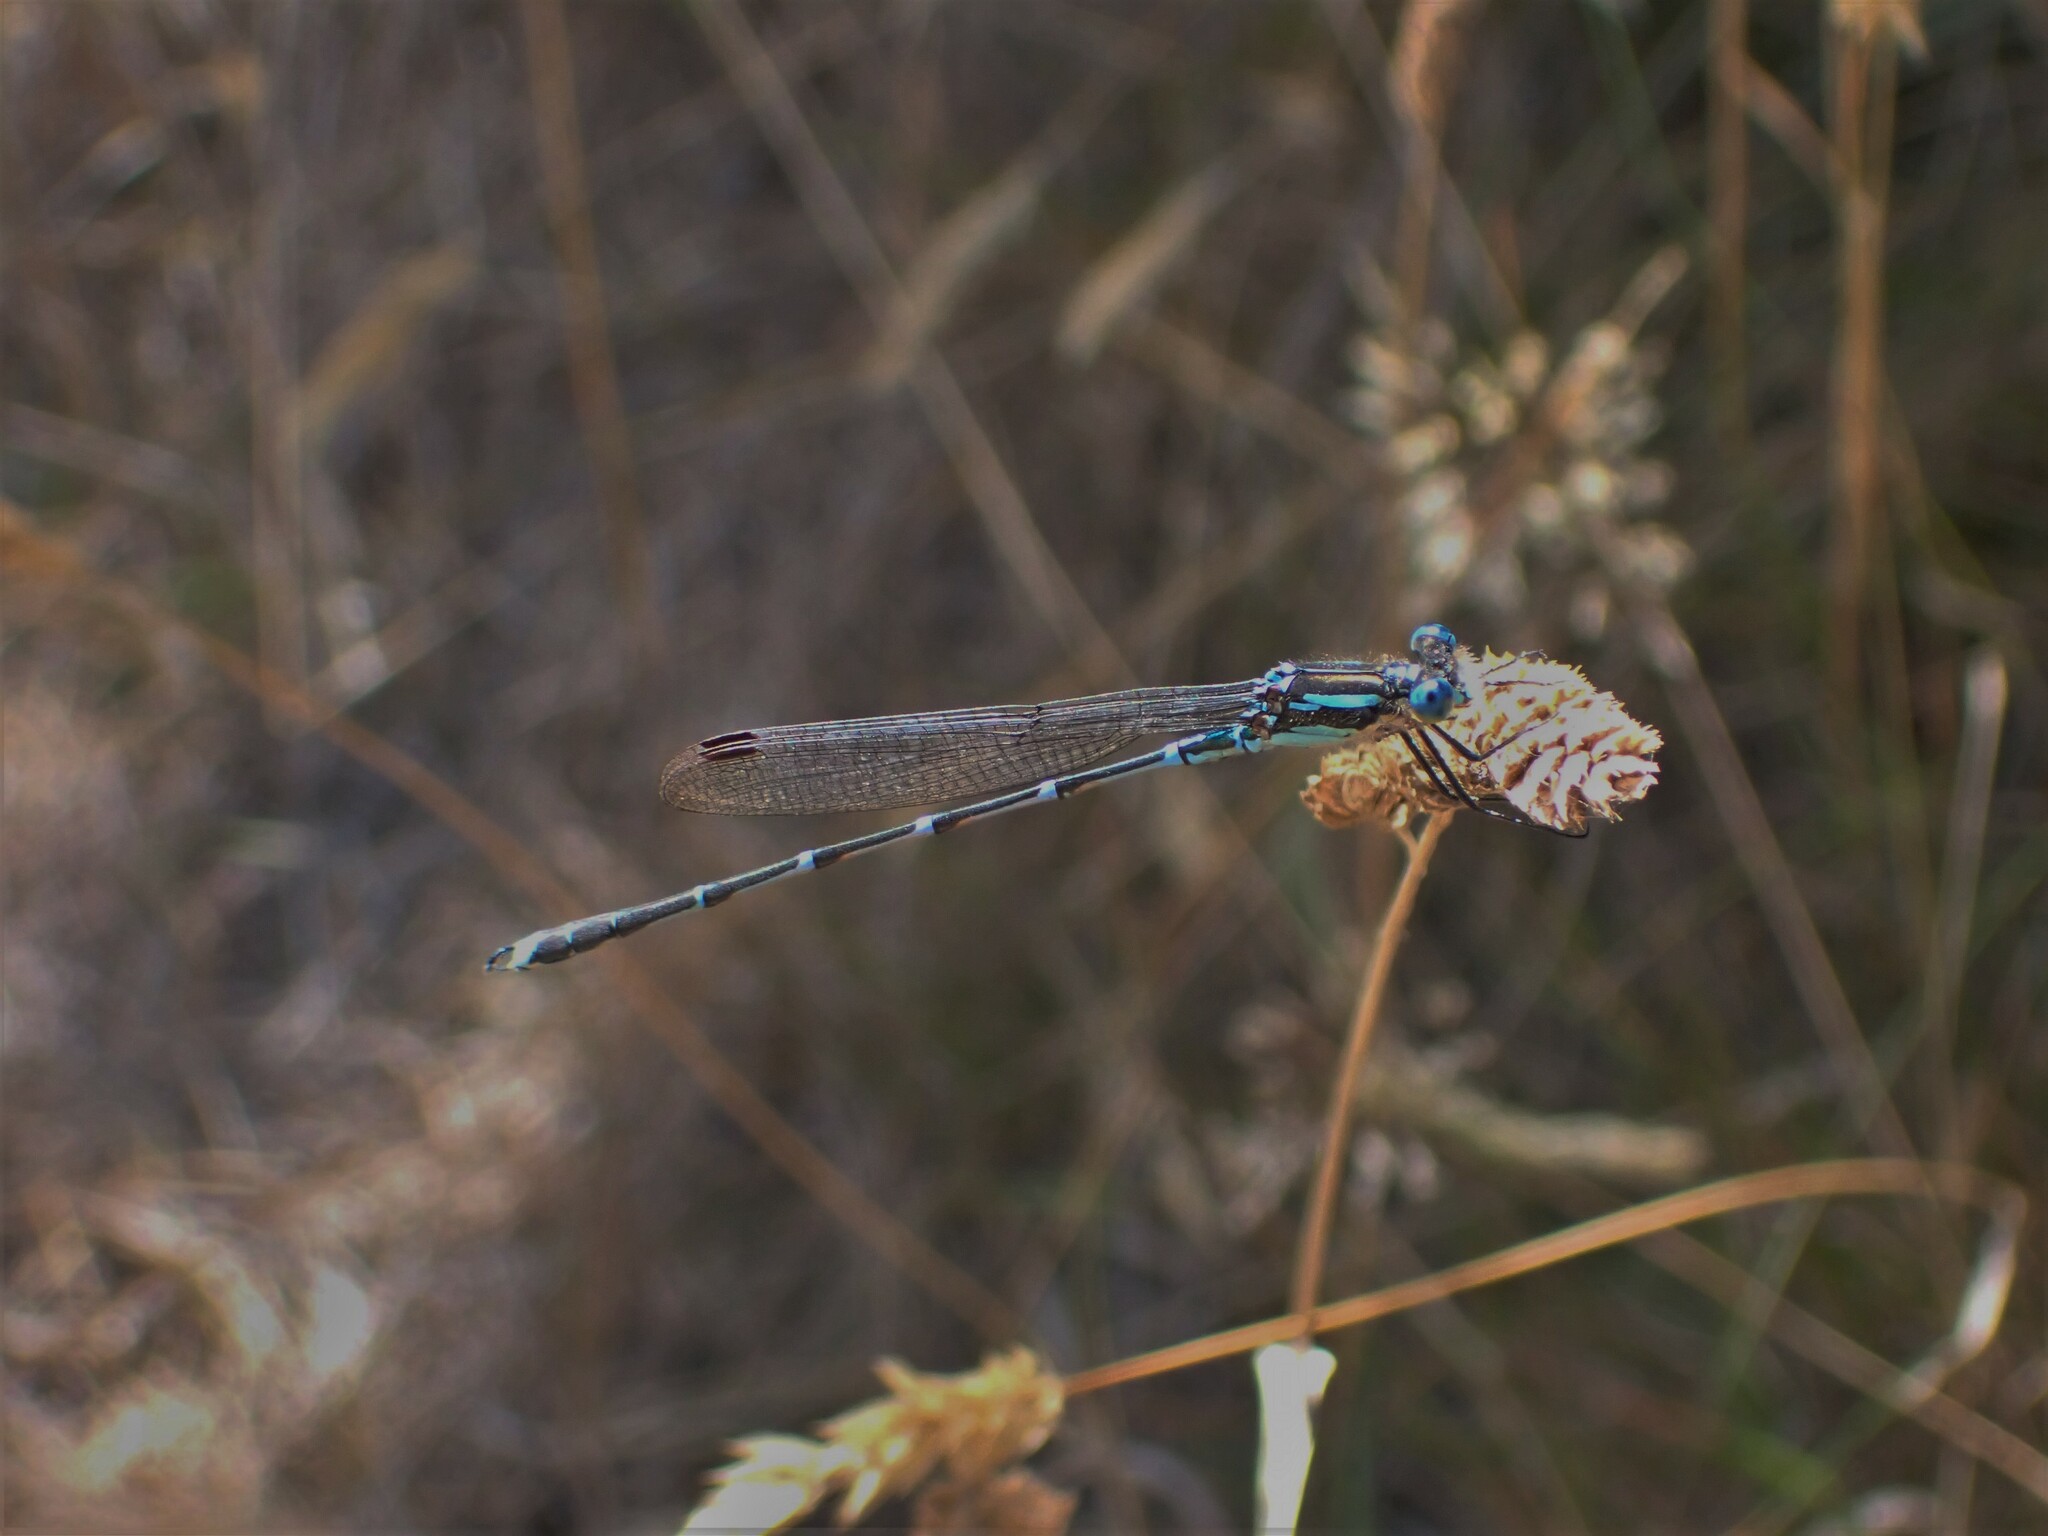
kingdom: Animalia
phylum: Arthropoda
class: Insecta
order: Odonata
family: Lestidae
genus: Austrolestes
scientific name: Austrolestes colensonis
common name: Blue damselfly
